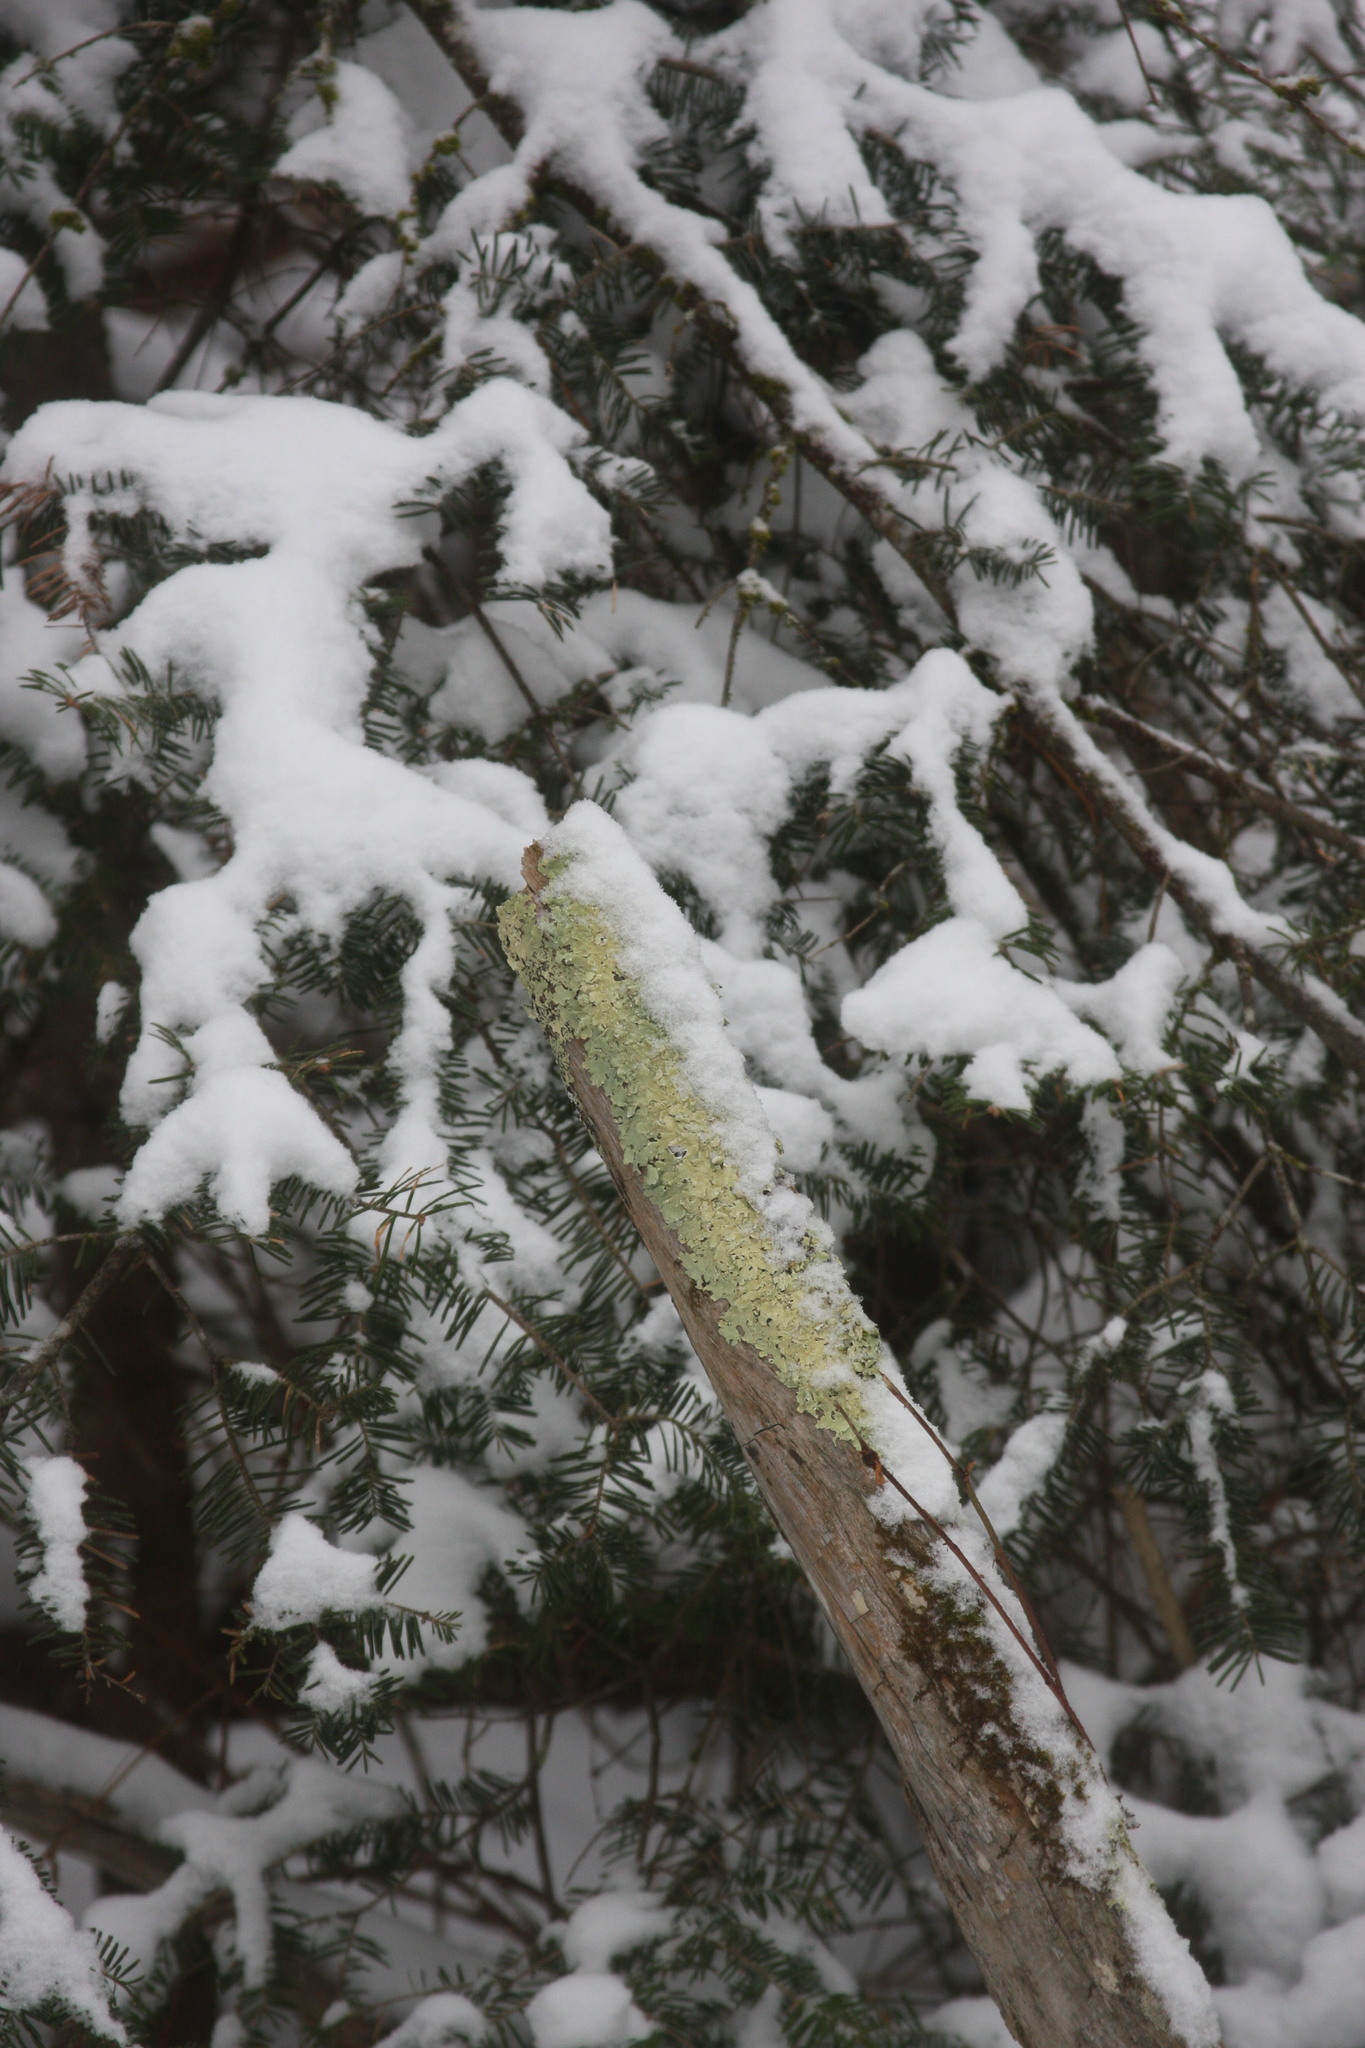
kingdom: Fungi
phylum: Ascomycota
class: Lecanoromycetes
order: Lecanorales
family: Parmeliaceae
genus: Flavoparmelia
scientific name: Flavoparmelia caperata
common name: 40-mile per hour lichen
